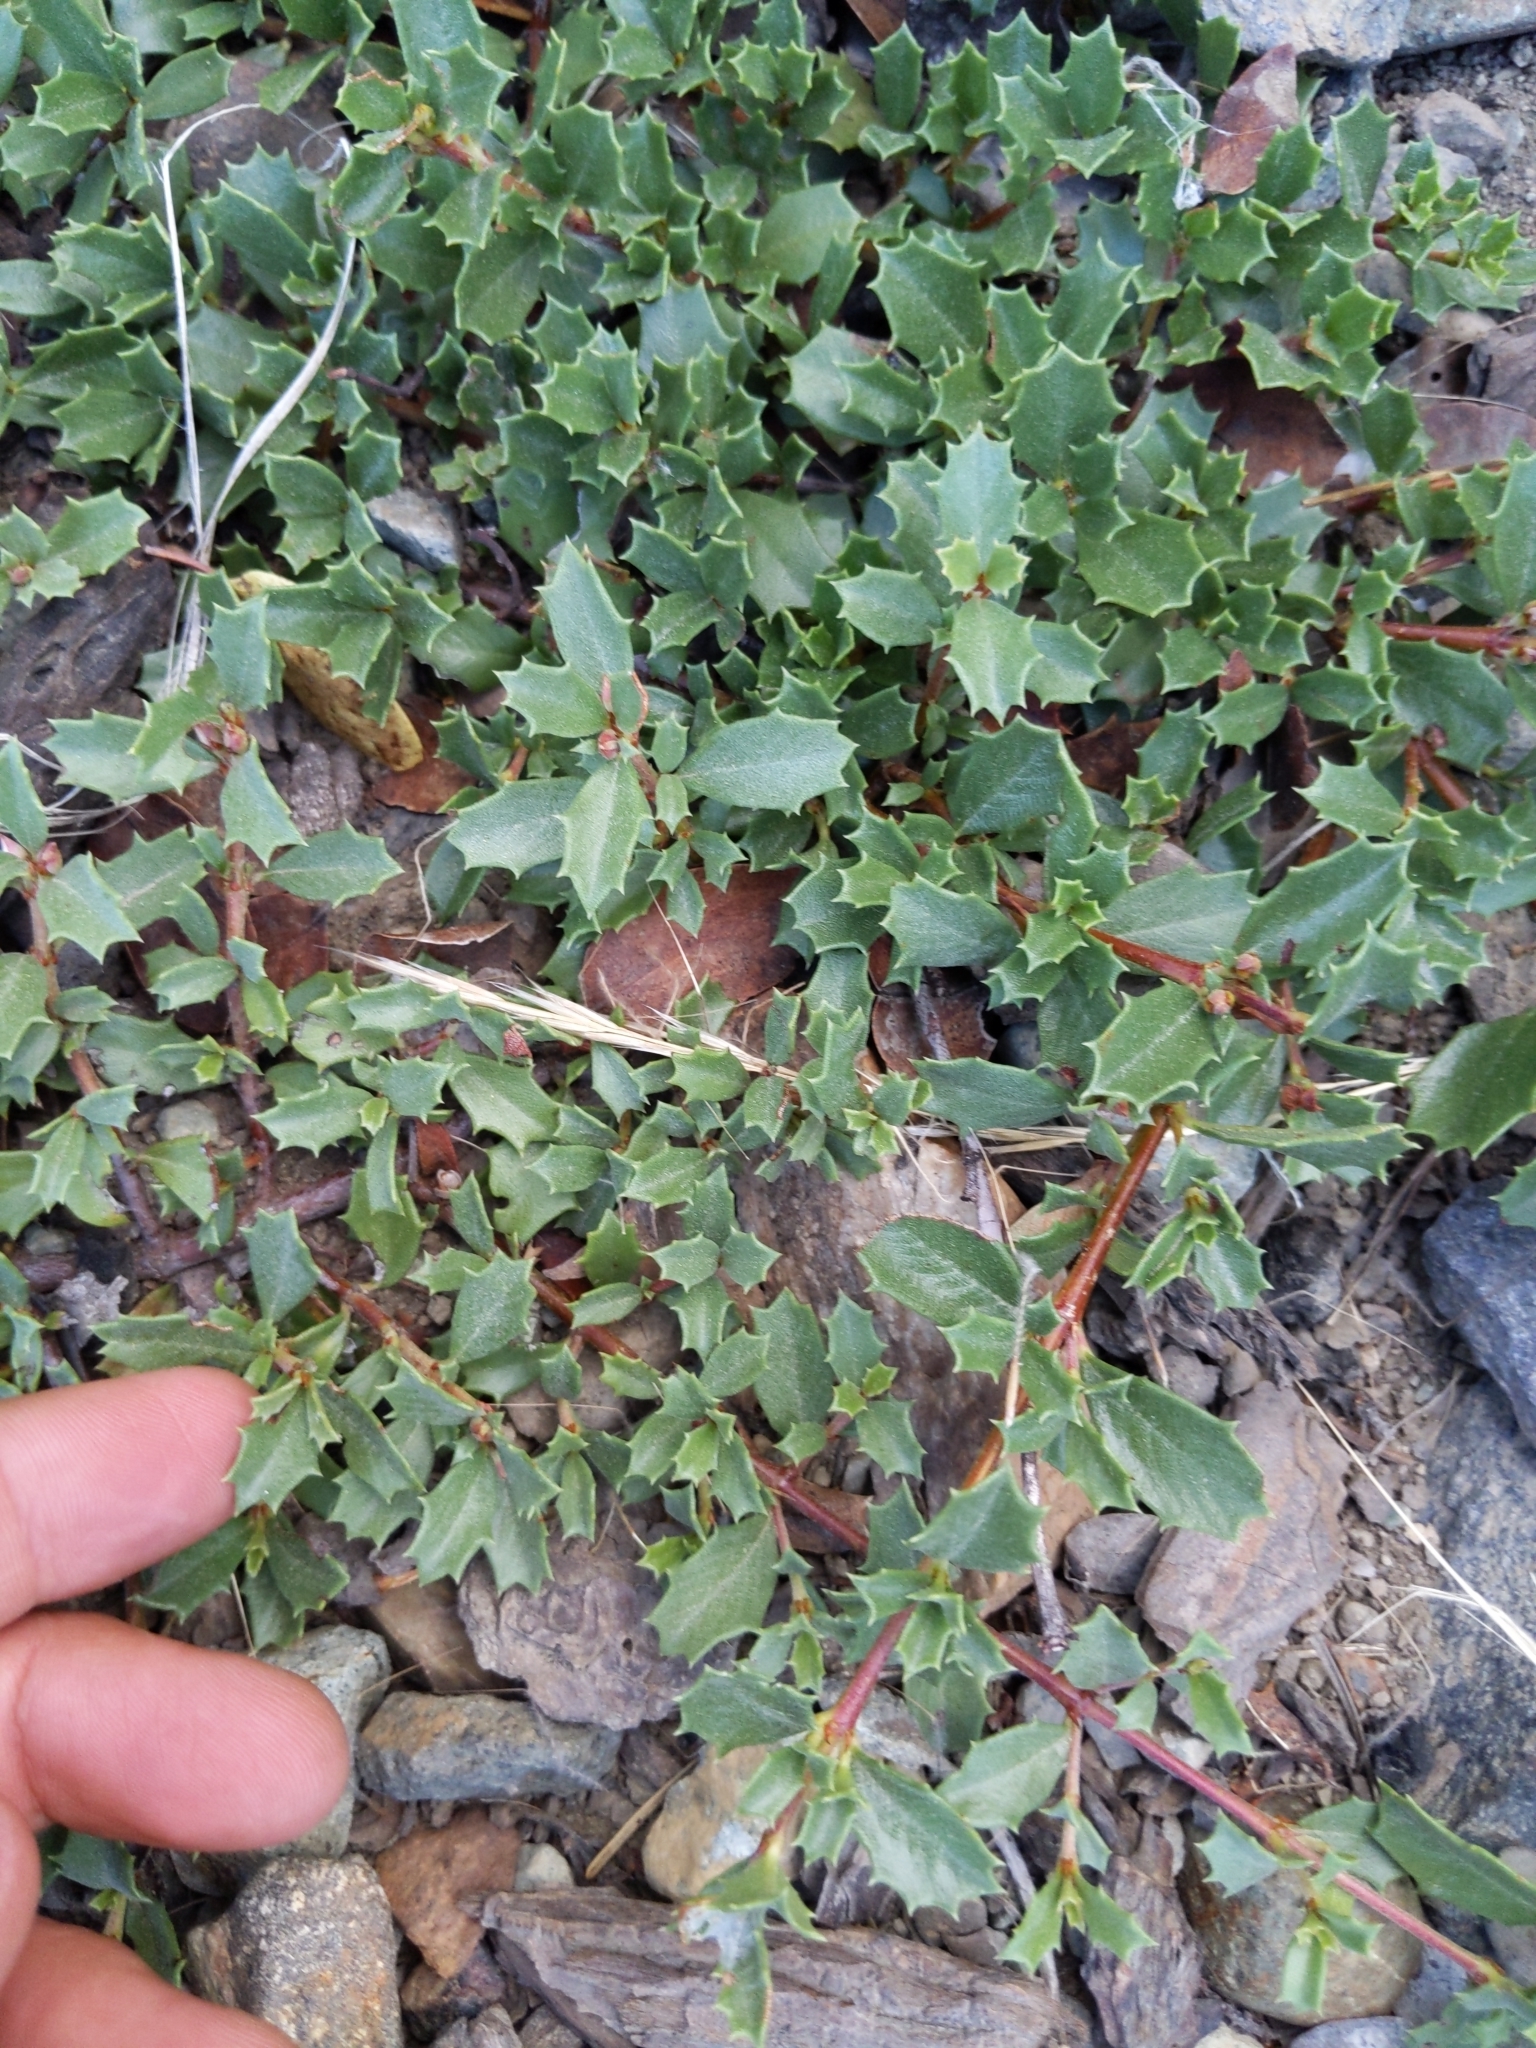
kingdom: Plantae
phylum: Tracheophyta
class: Magnoliopsida
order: Rosales
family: Rhamnaceae
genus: Ceanothus
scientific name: Ceanothus prostratus
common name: Mahala-mat
